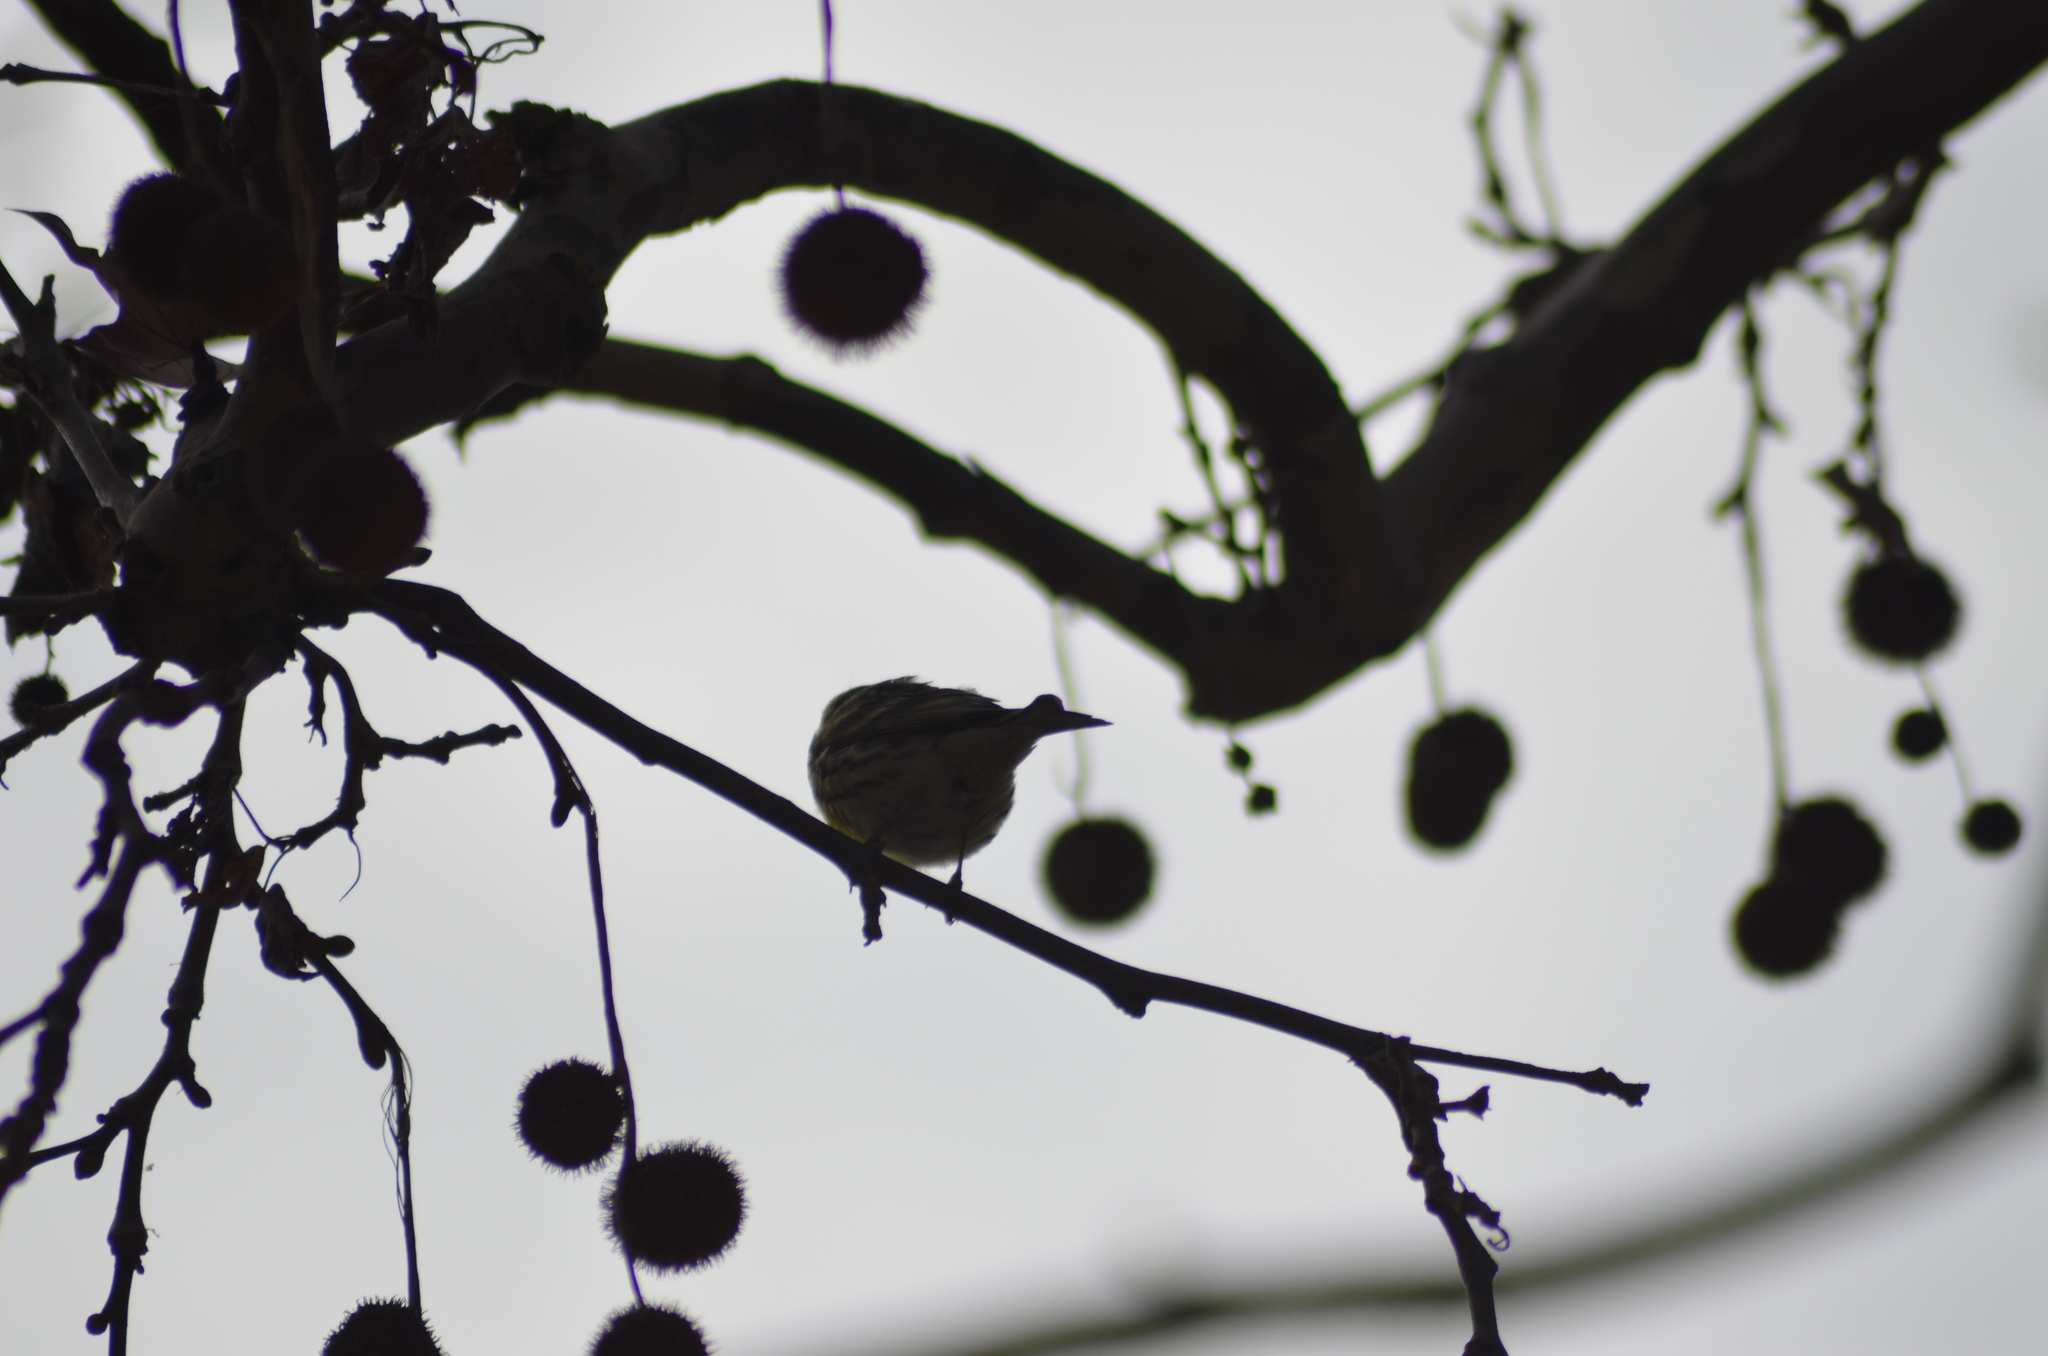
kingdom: Animalia
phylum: Chordata
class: Aves
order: Passeriformes
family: Fringillidae
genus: Serinus
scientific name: Serinus serinus
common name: European serin
